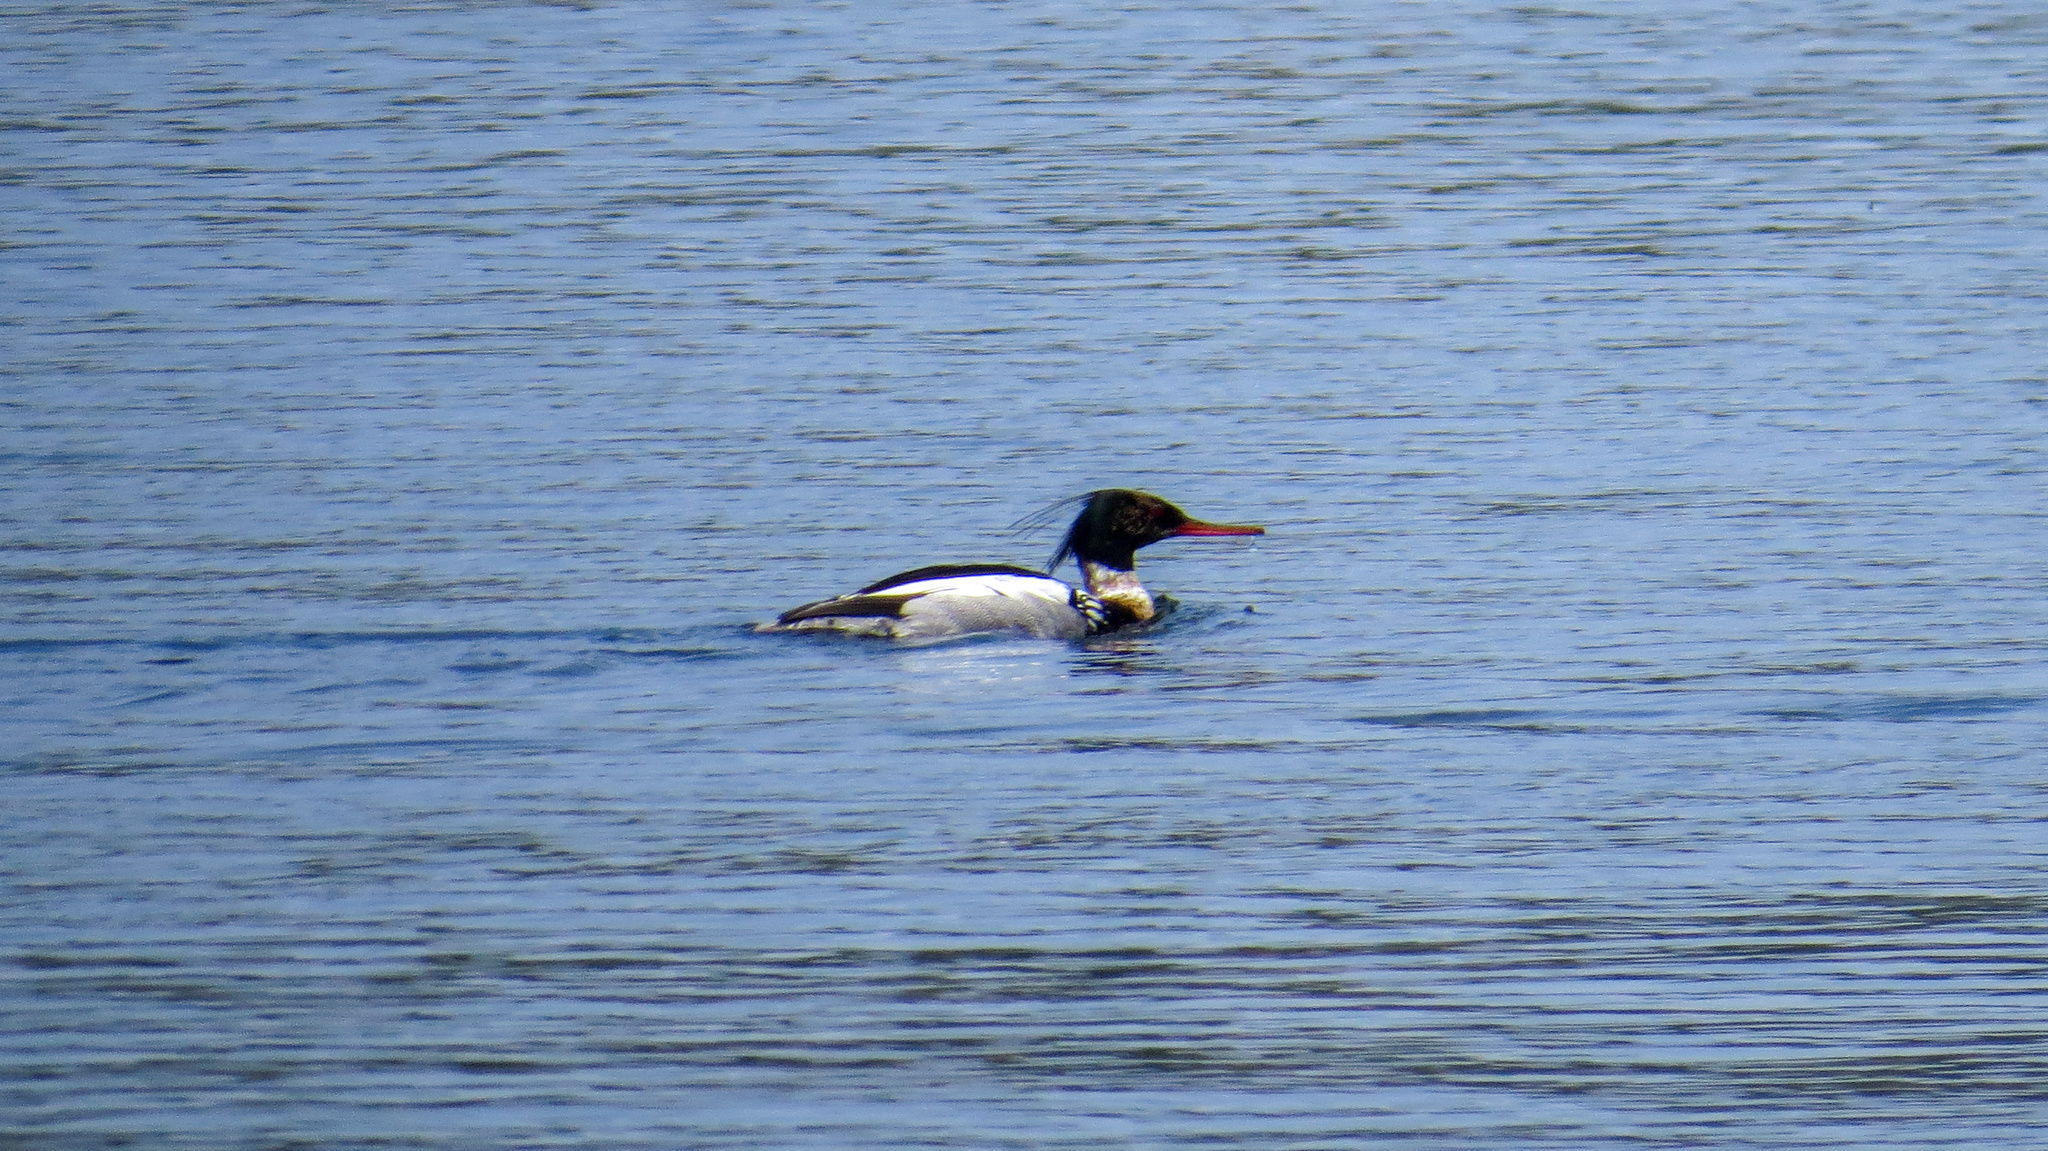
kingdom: Animalia
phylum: Chordata
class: Aves
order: Anseriformes
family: Anatidae
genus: Mergus
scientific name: Mergus serrator
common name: Red-breasted merganser
